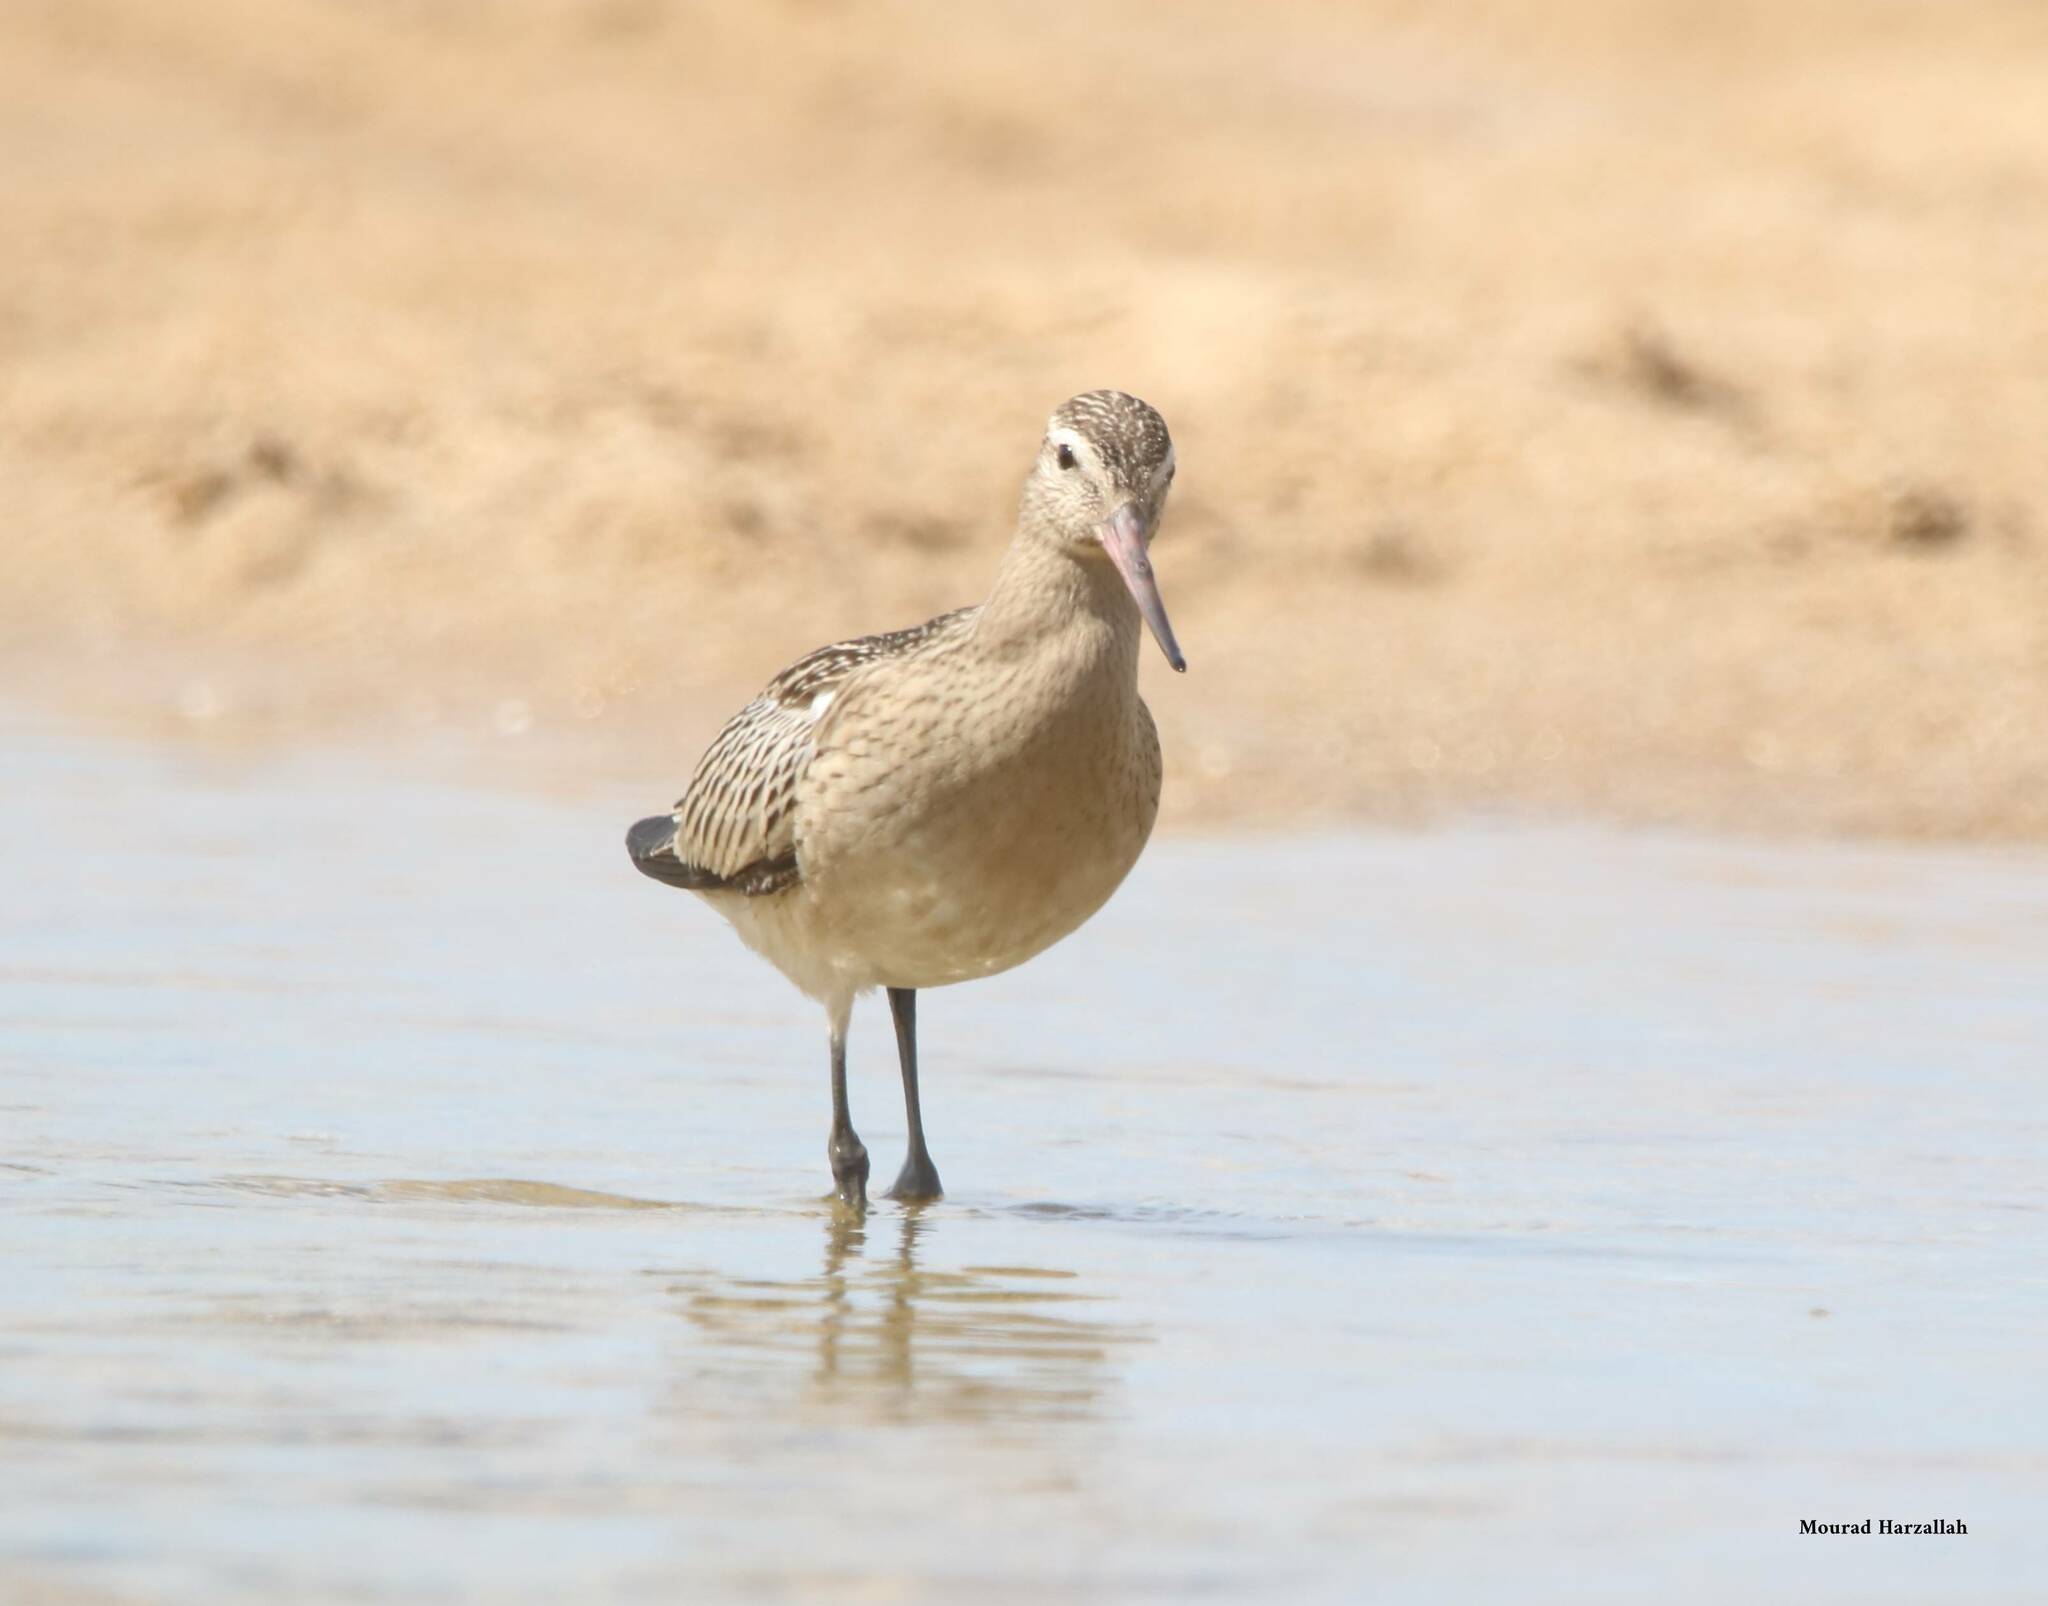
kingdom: Animalia
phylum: Chordata
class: Aves
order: Charadriiformes
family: Scolopacidae
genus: Limosa
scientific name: Limosa lapponica
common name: Bar-tailed godwit
